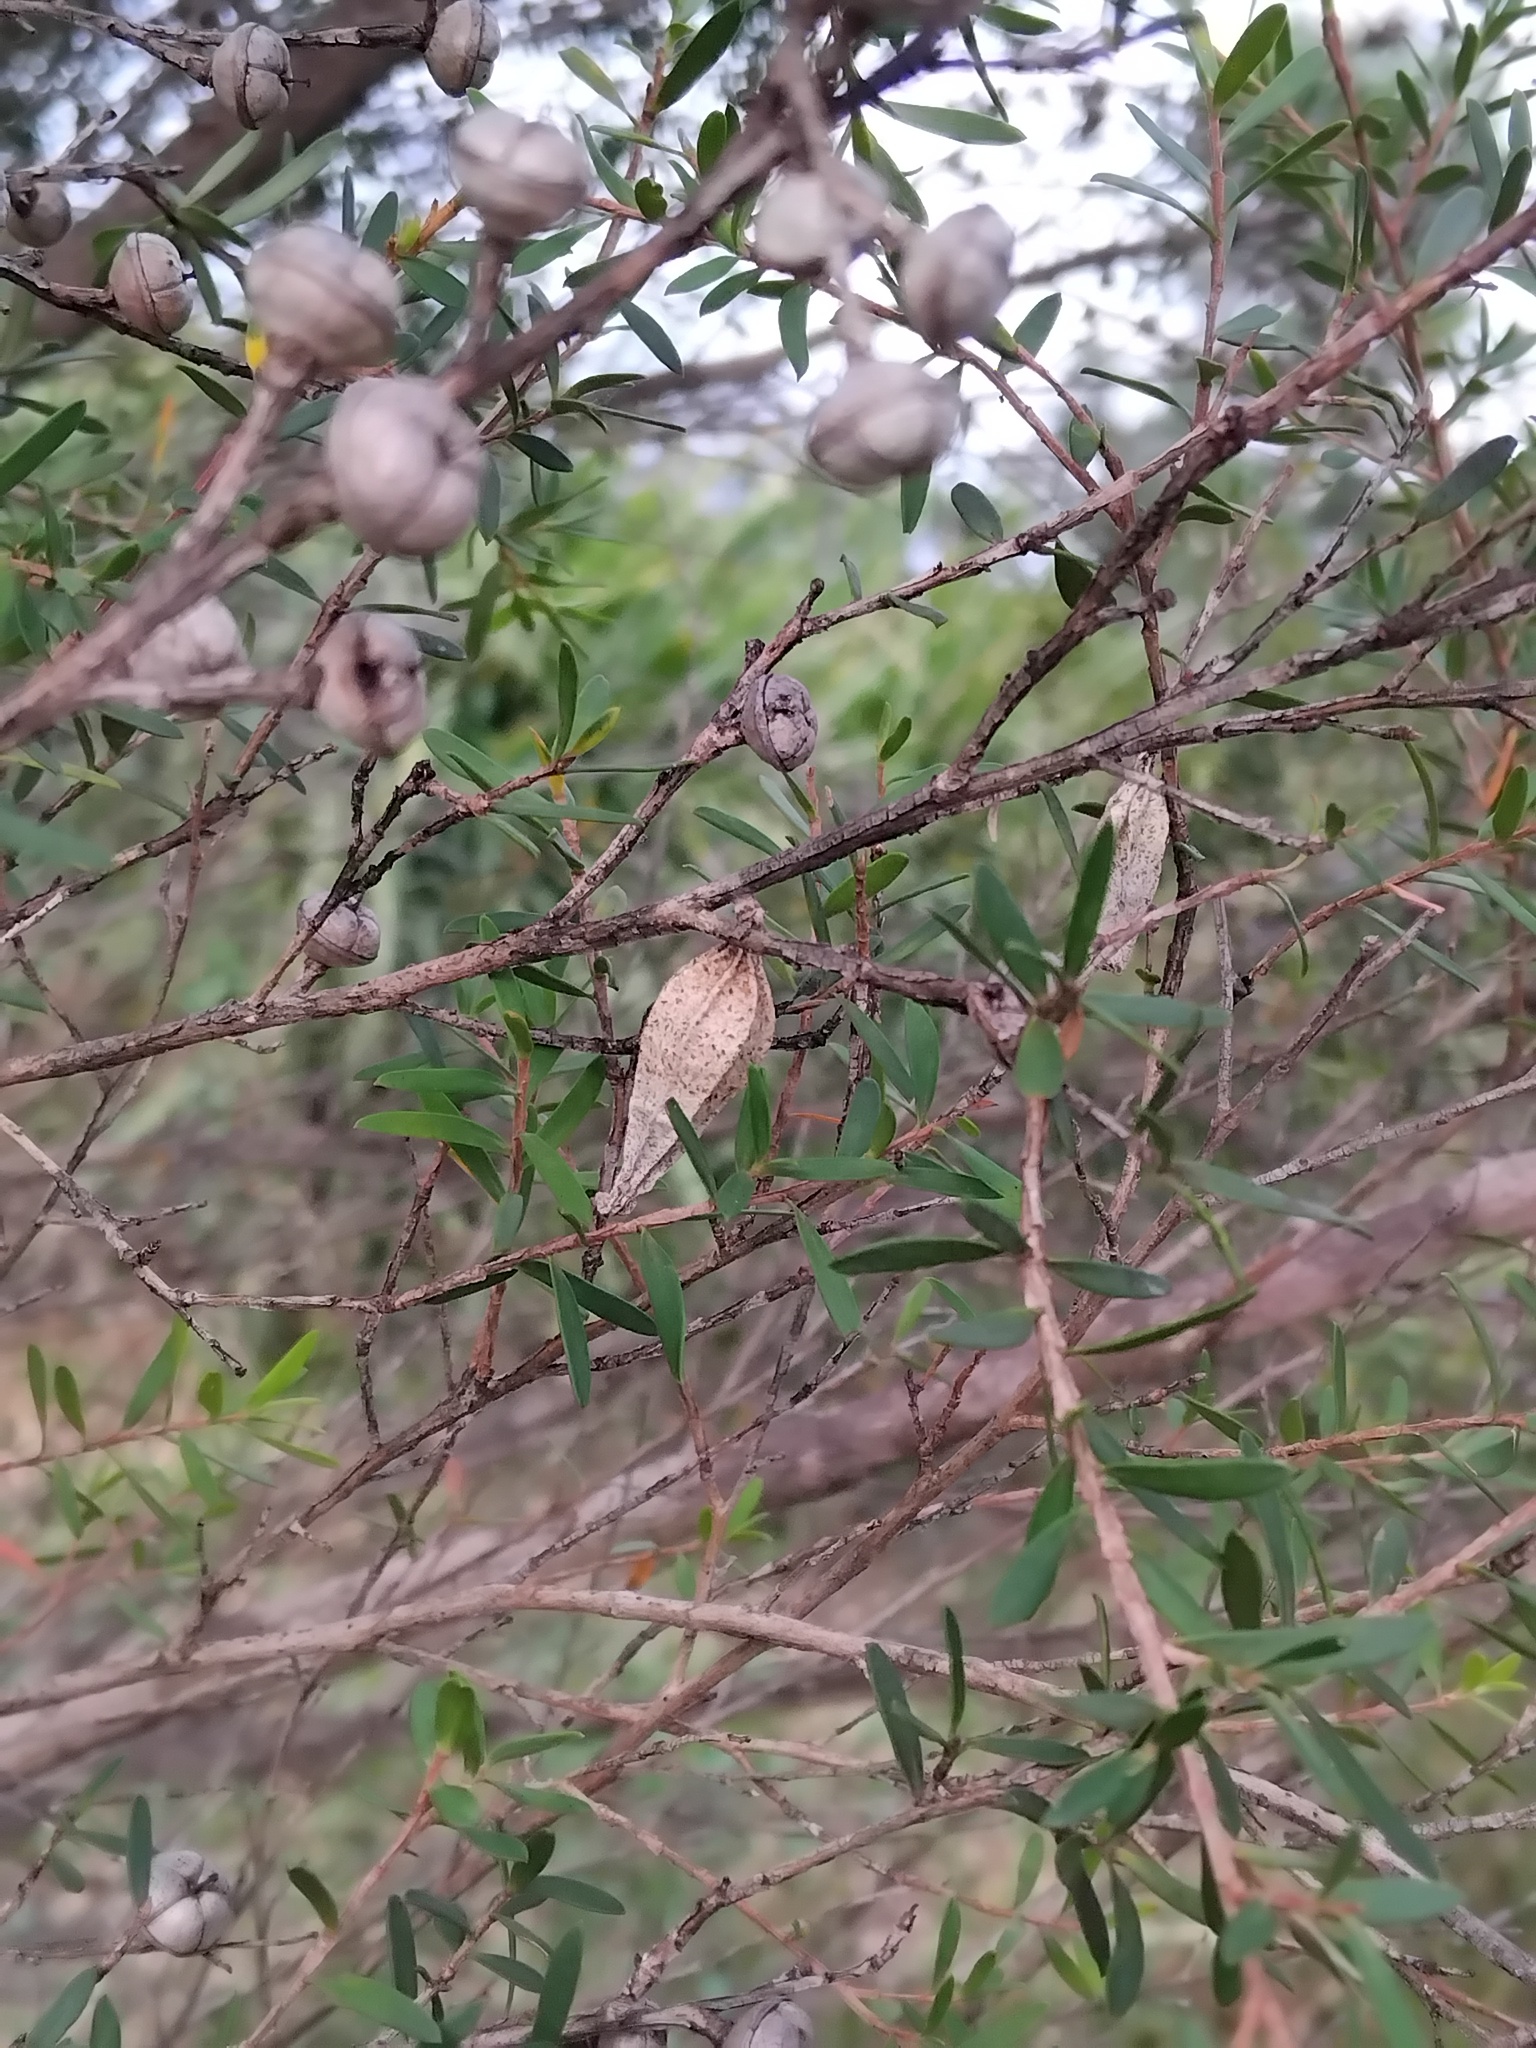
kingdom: Animalia
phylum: Arthropoda
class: Insecta
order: Lepidoptera
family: Psychidae
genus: Hyalarcta
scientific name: Hyalarcta nigrescens
